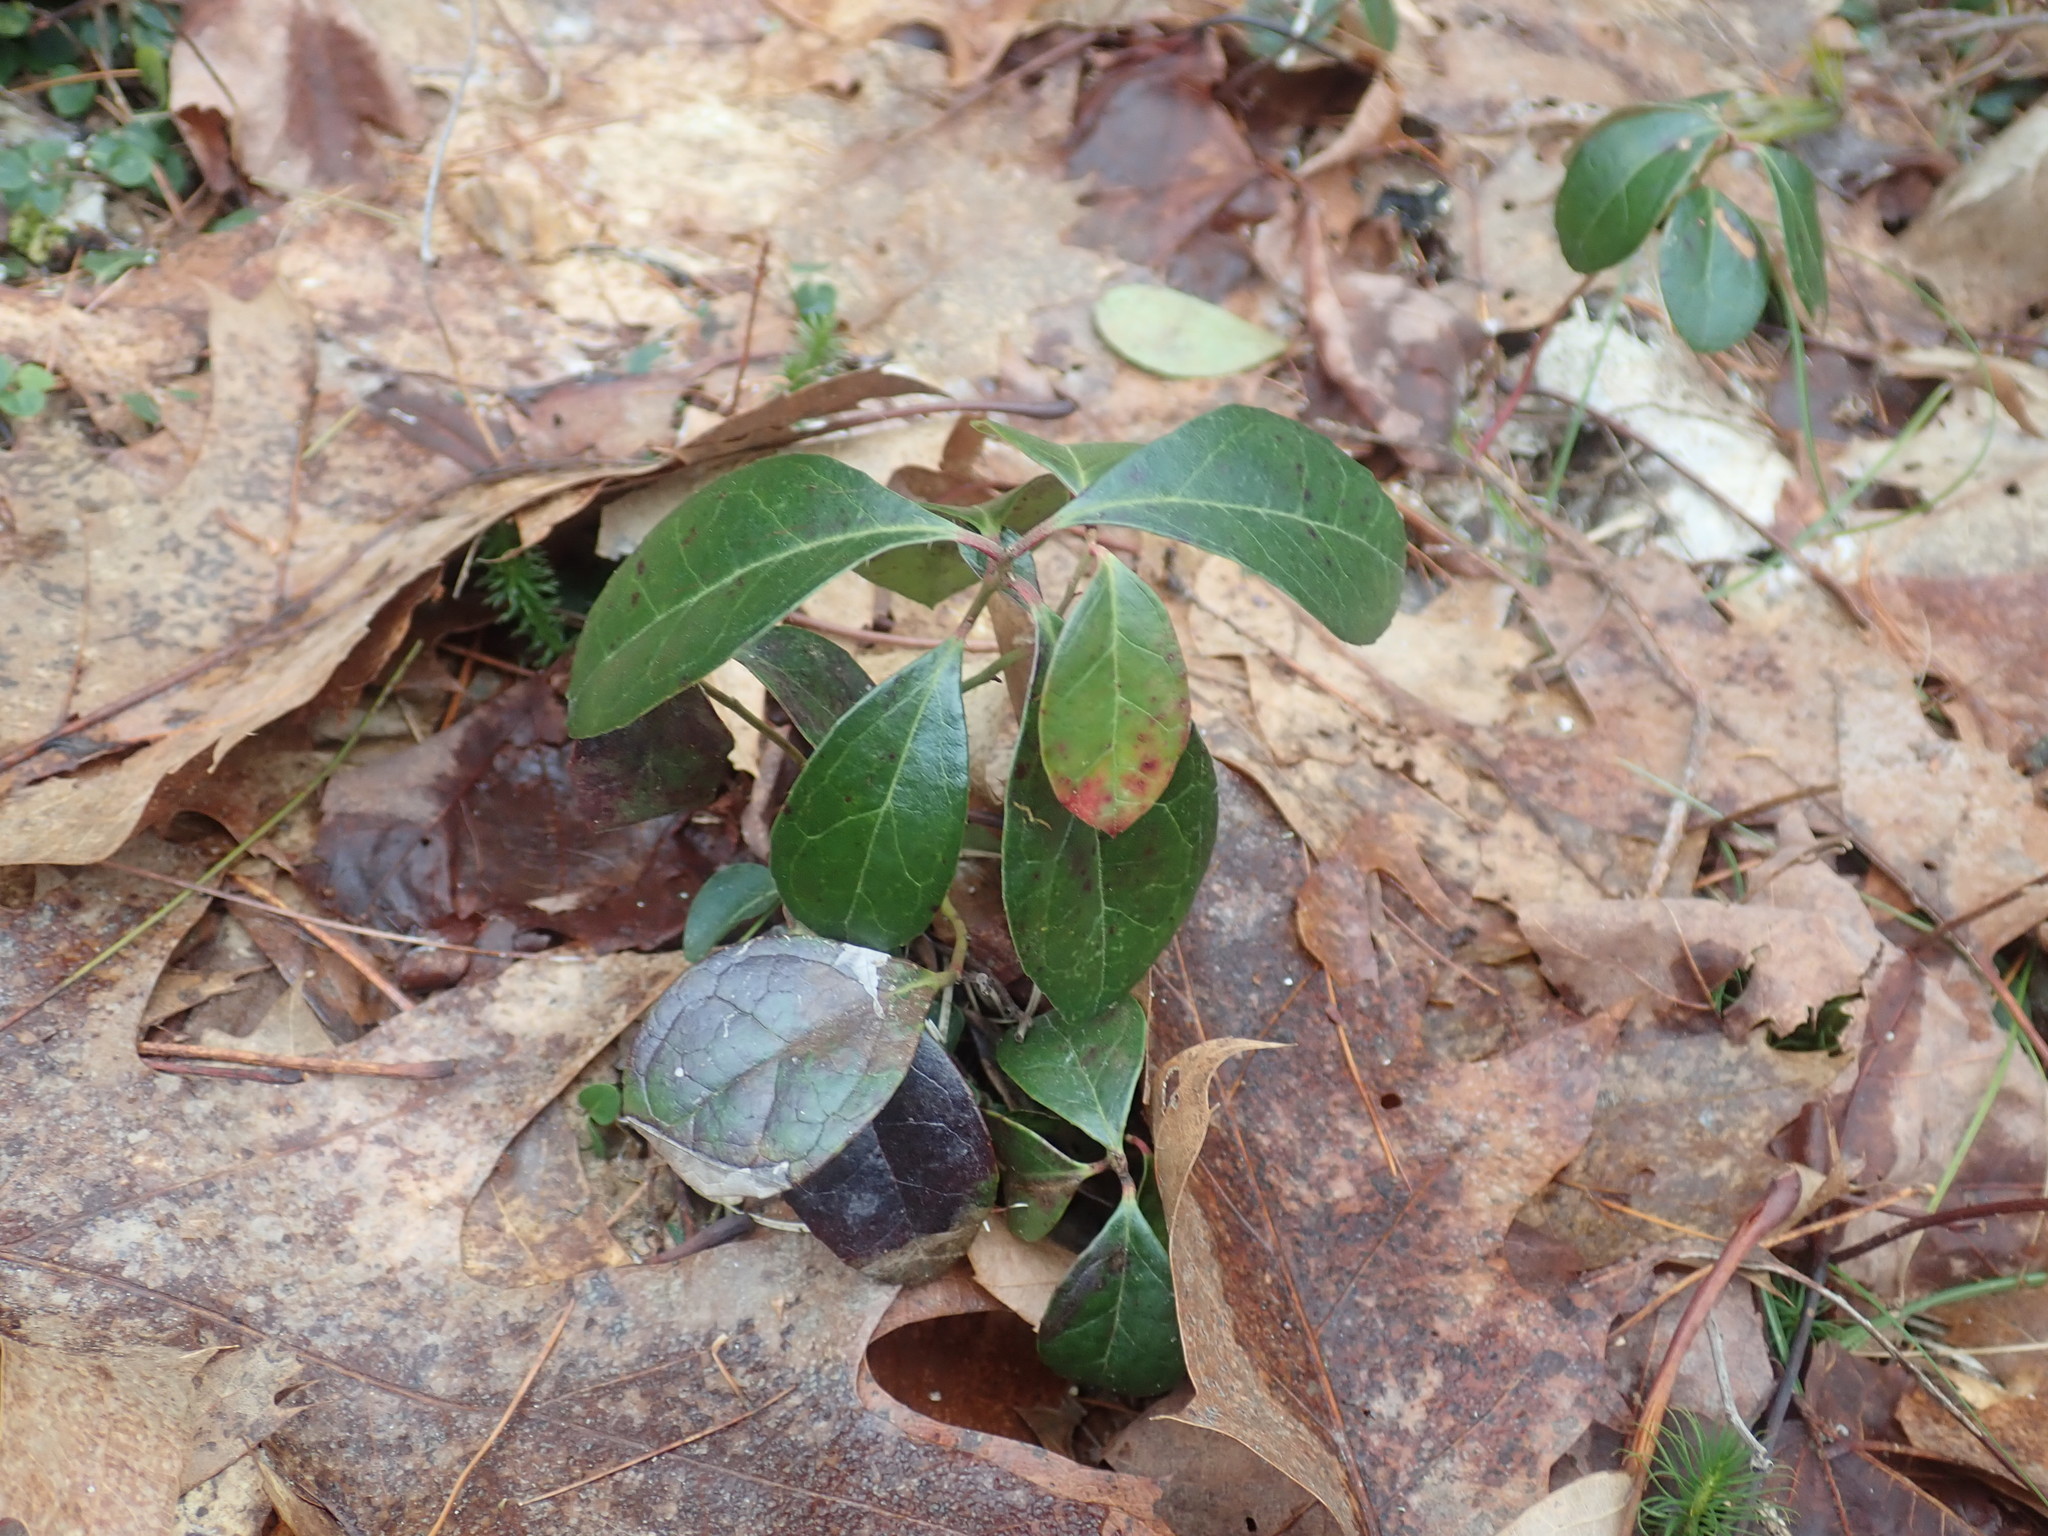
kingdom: Plantae
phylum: Tracheophyta
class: Magnoliopsida
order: Ericales
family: Ericaceae
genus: Gaultheria
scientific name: Gaultheria procumbens
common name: Checkerberry
